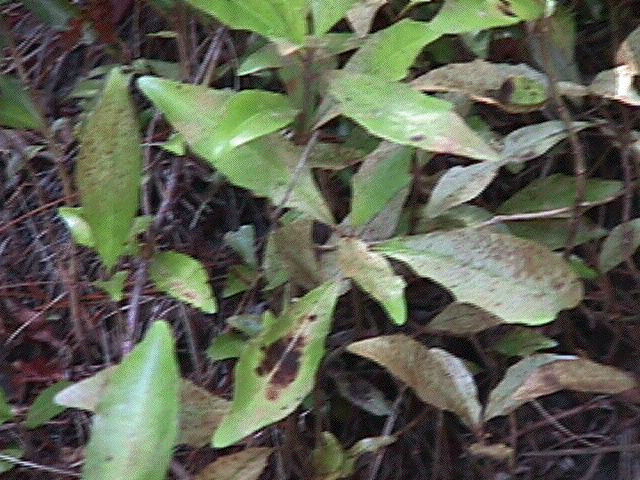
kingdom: Plantae
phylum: Tracheophyta
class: Magnoliopsida
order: Asterales
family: Alseuosmiaceae
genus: Alseuosmia
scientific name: Alseuosmia macrophylla
